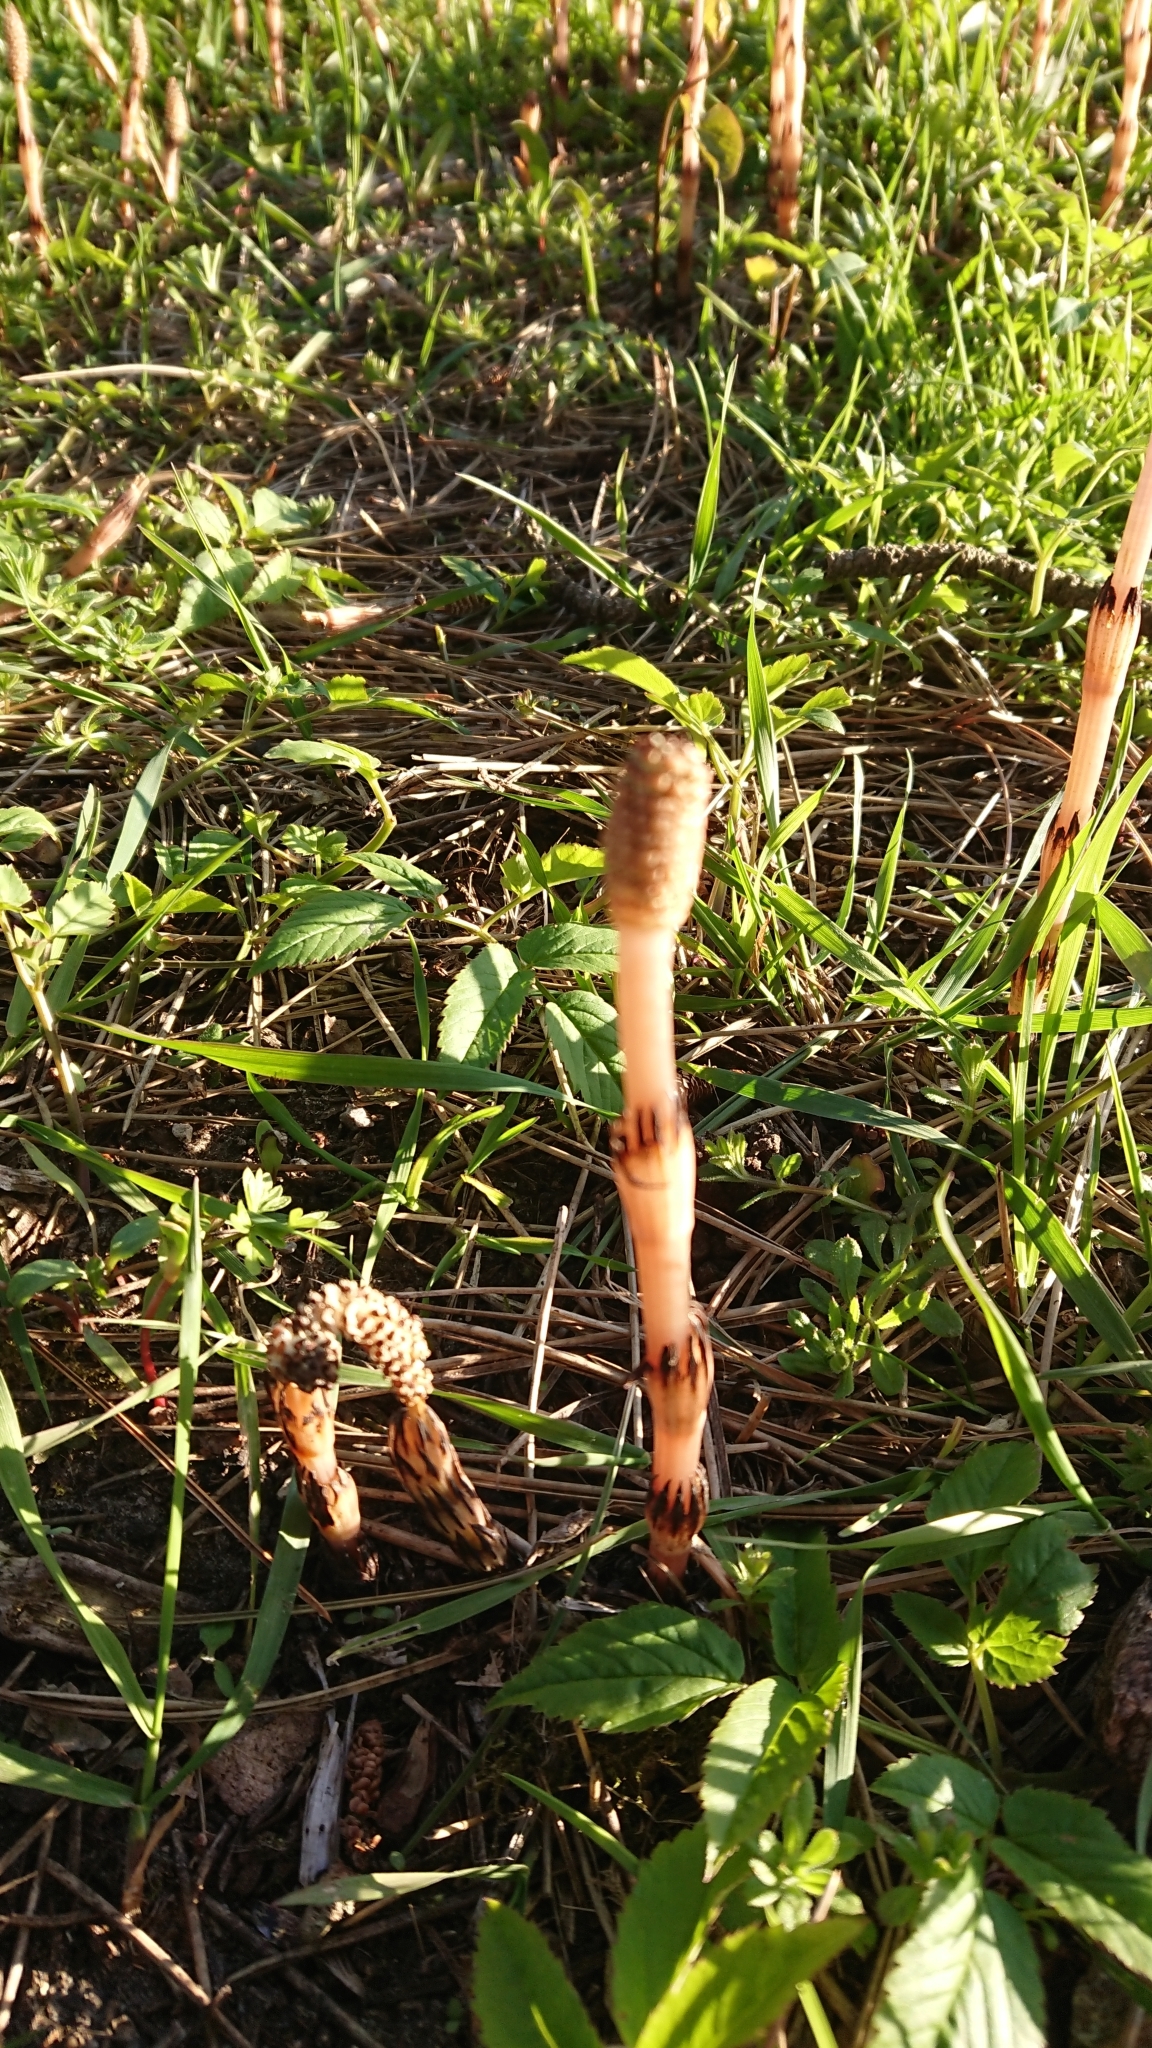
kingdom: Plantae
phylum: Tracheophyta
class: Polypodiopsida
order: Equisetales
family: Equisetaceae
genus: Equisetum
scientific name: Equisetum arvense
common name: Field horsetail
